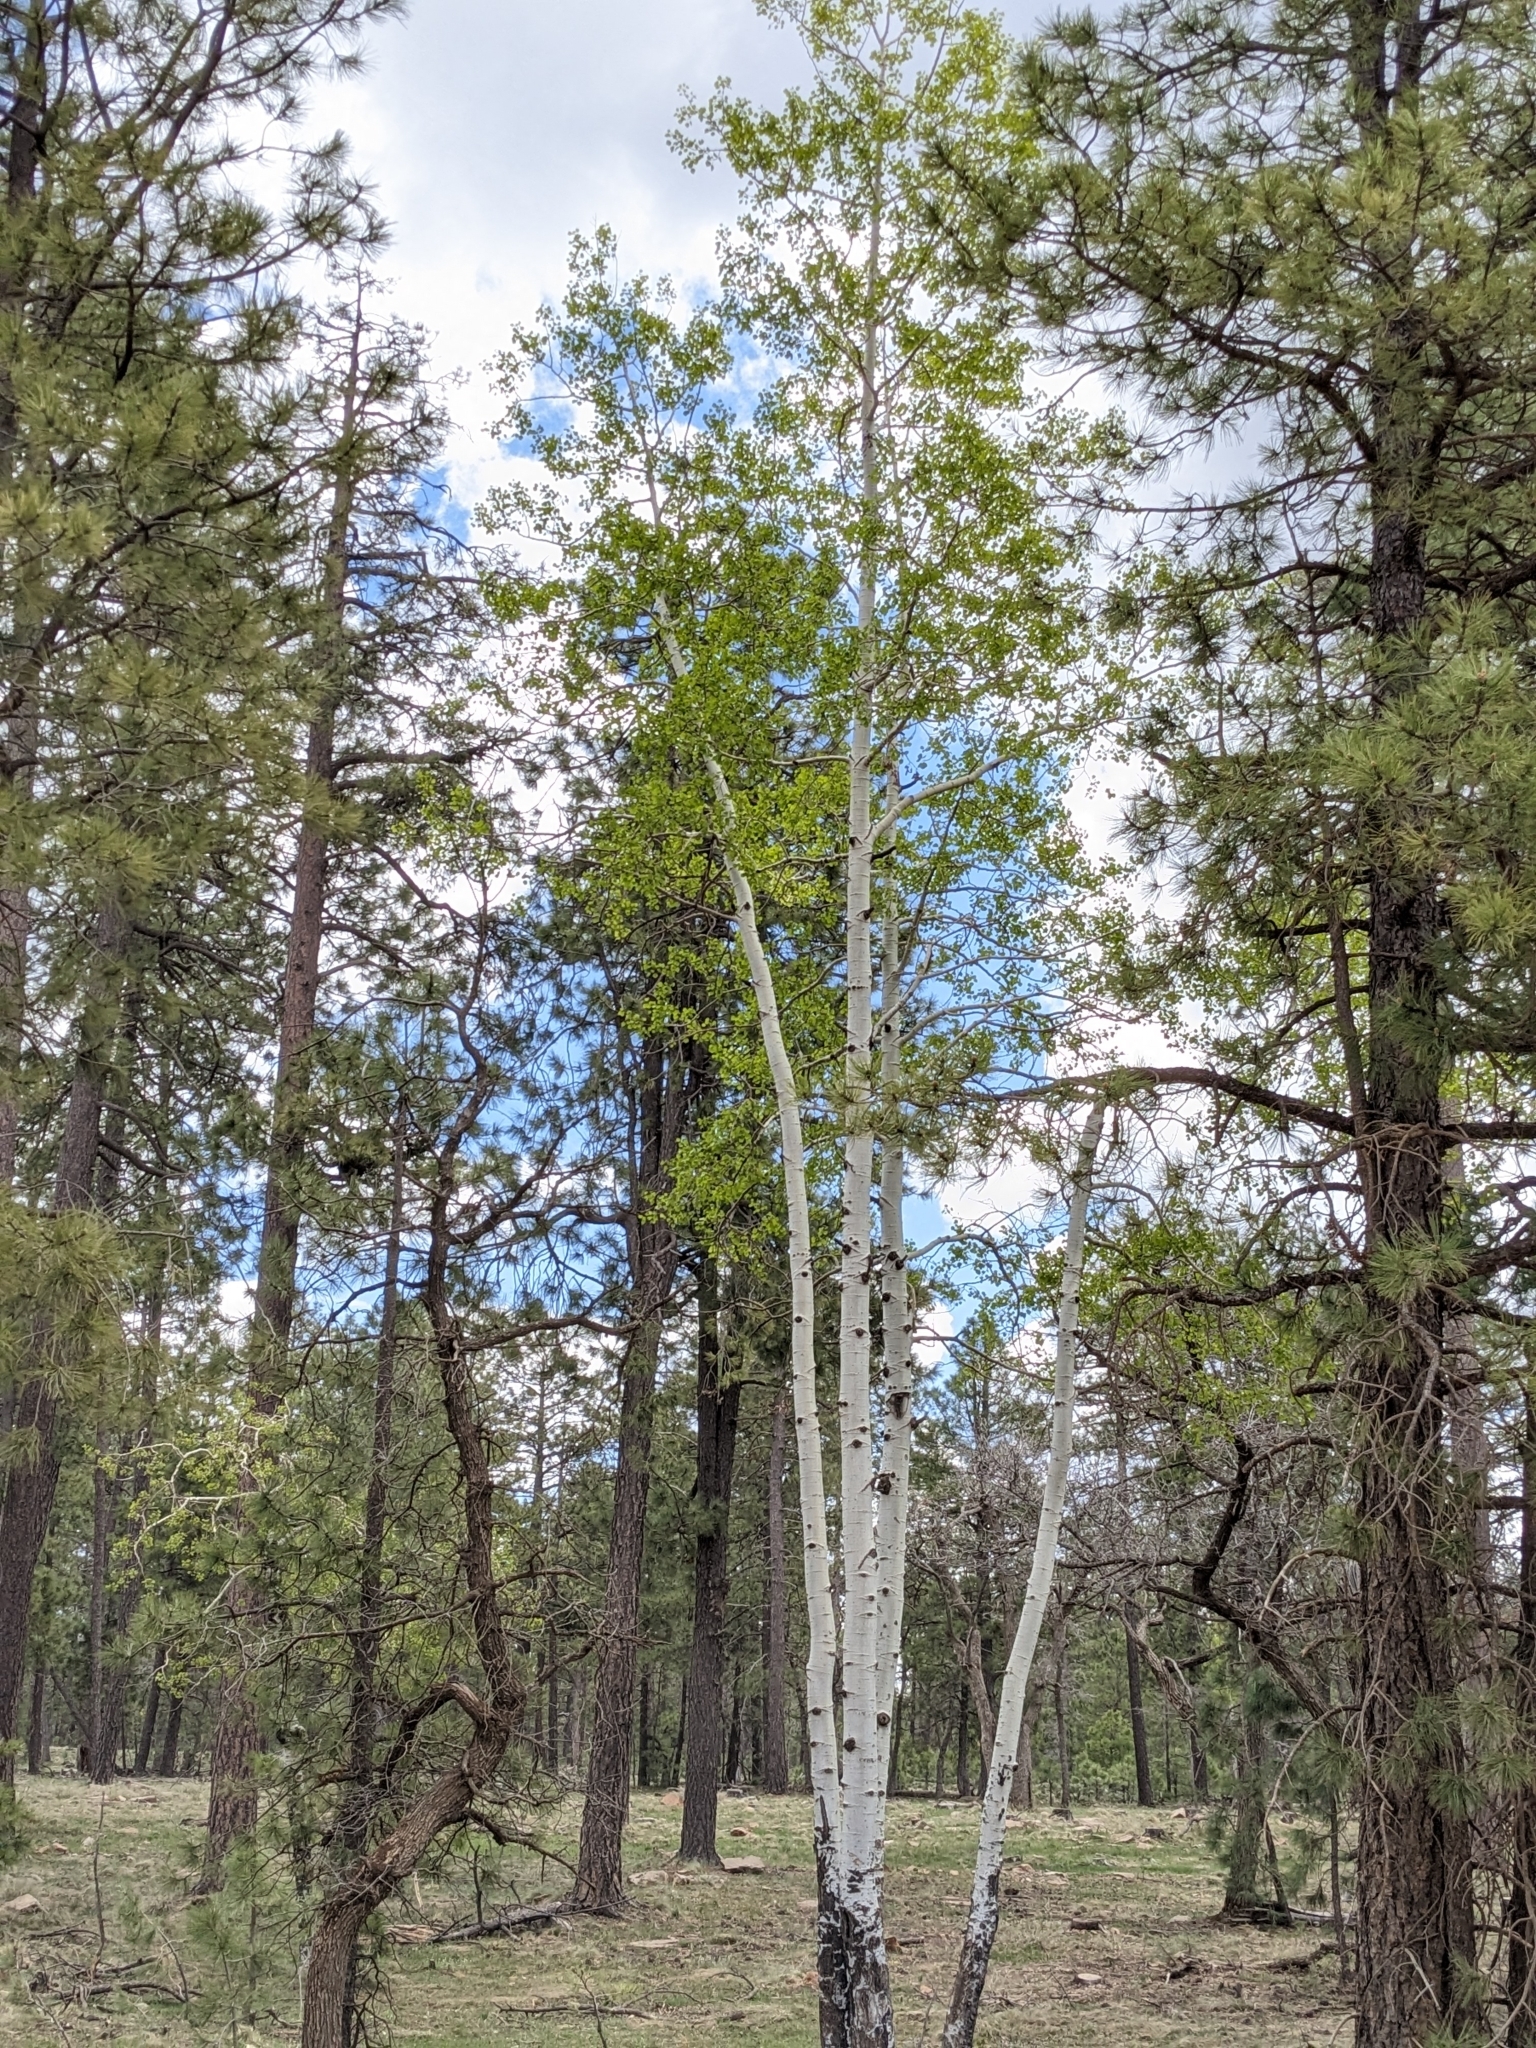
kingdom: Plantae
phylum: Tracheophyta
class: Magnoliopsida
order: Malpighiales
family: Salicaceae
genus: Populus
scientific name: Populus tremuloides
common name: Quaking aspen
